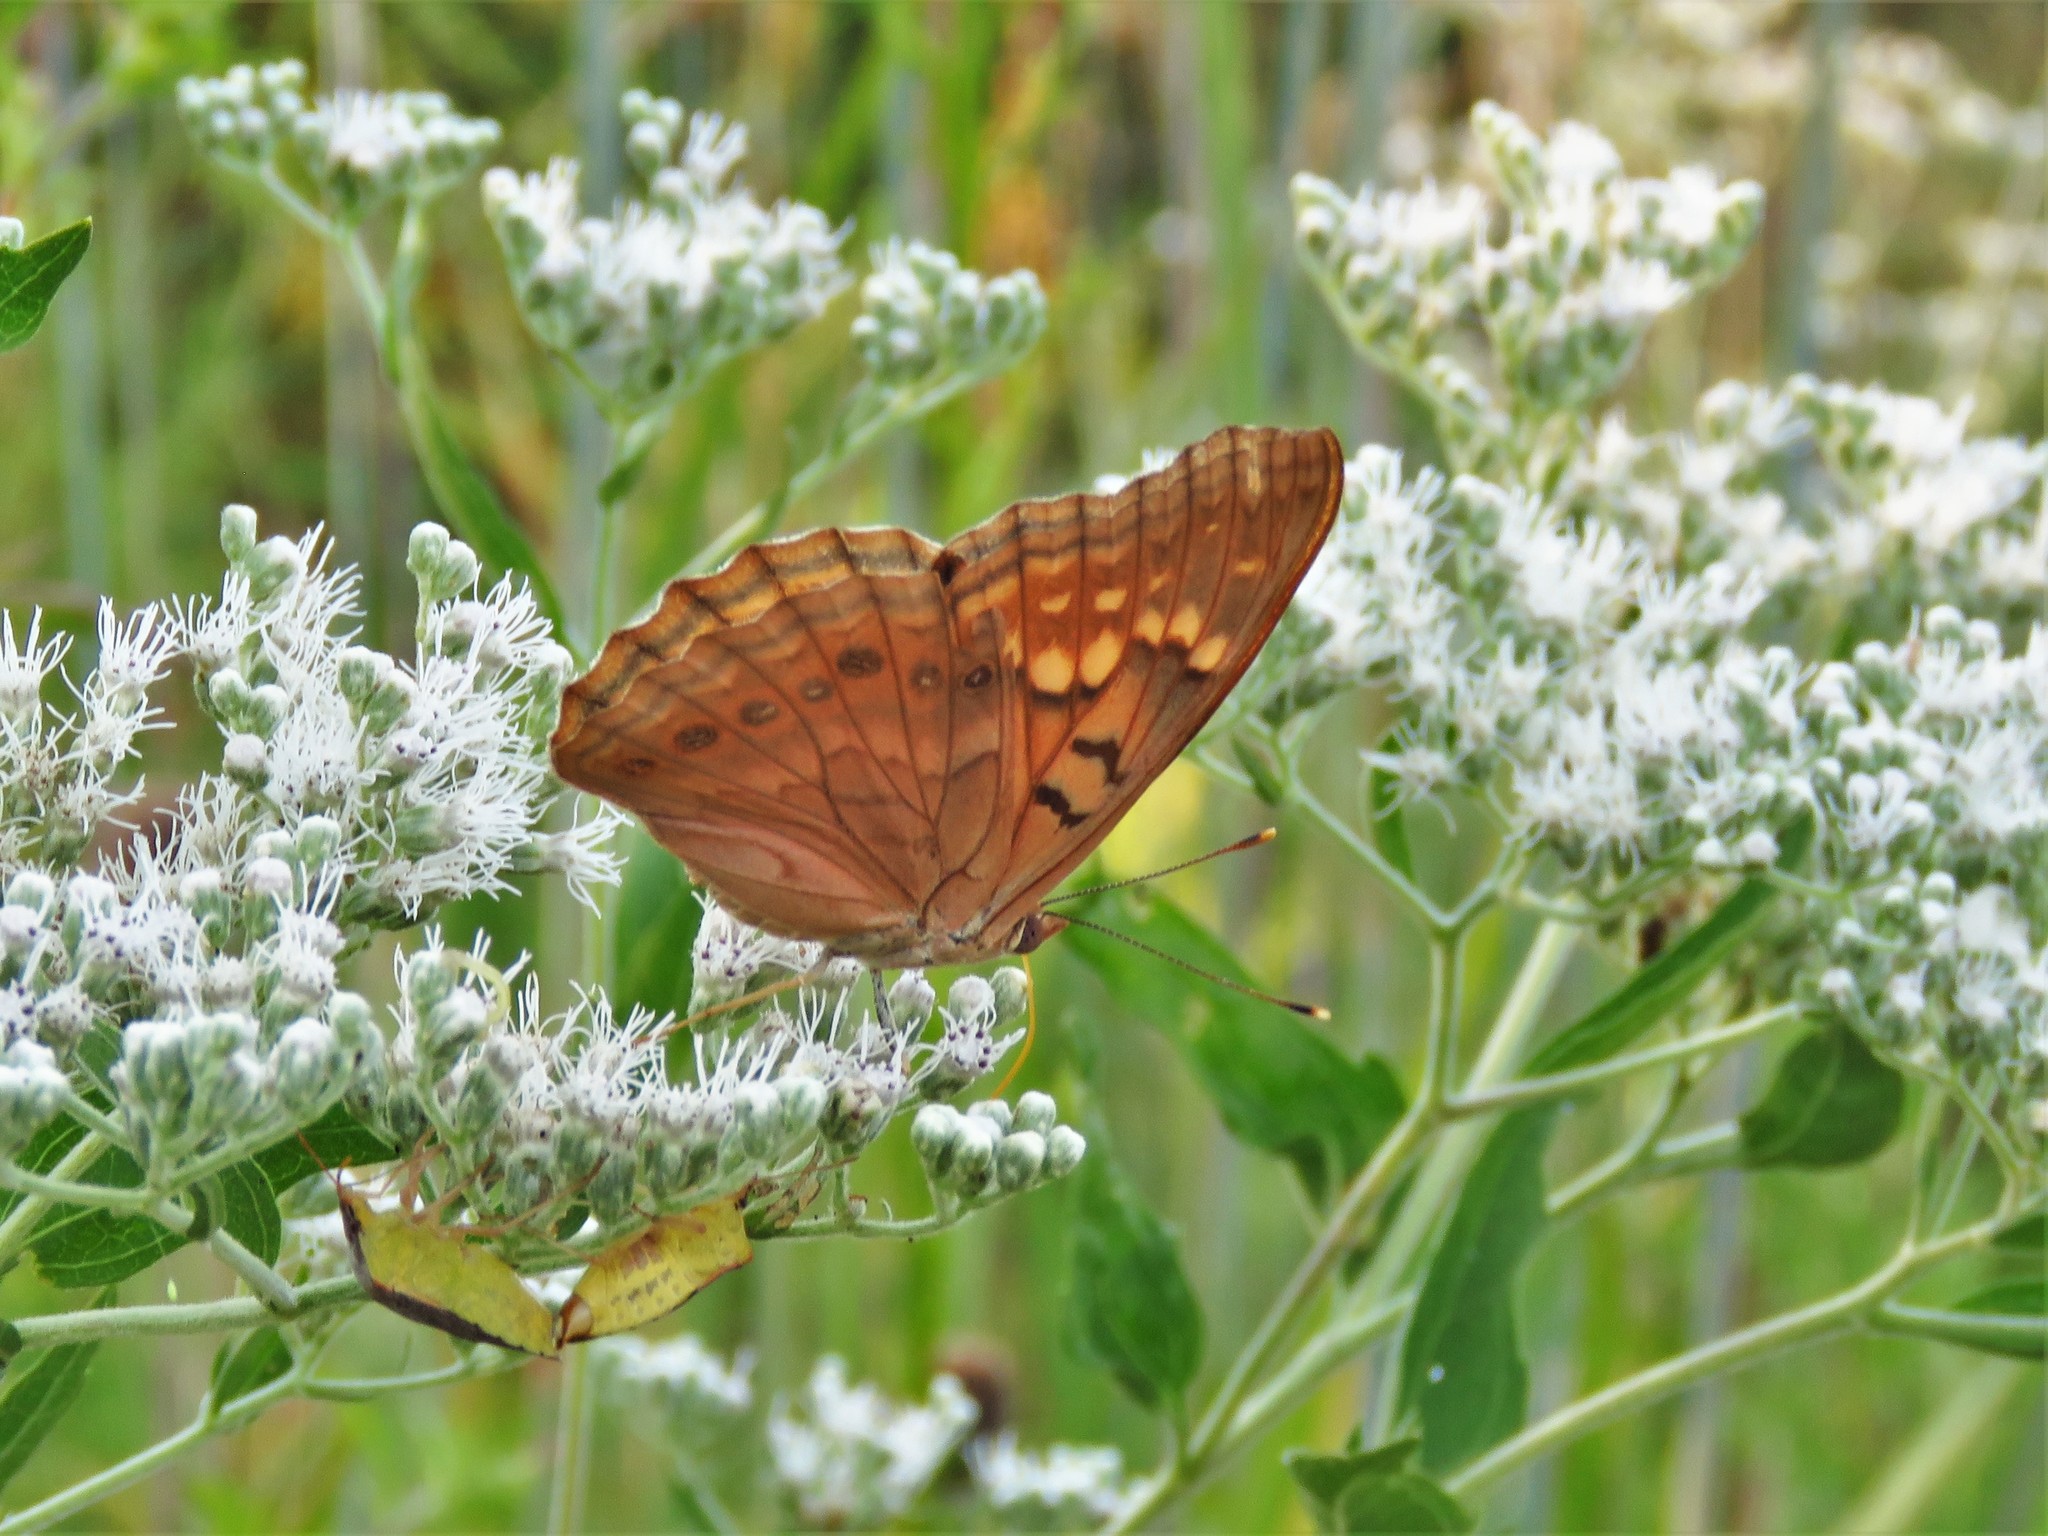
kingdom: Animalia
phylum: Arthropoda
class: Insecta
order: Lepidoptera
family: Nymphalidae
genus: Asterocampa
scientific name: Asterocampa clyton
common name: Tawny emperor
